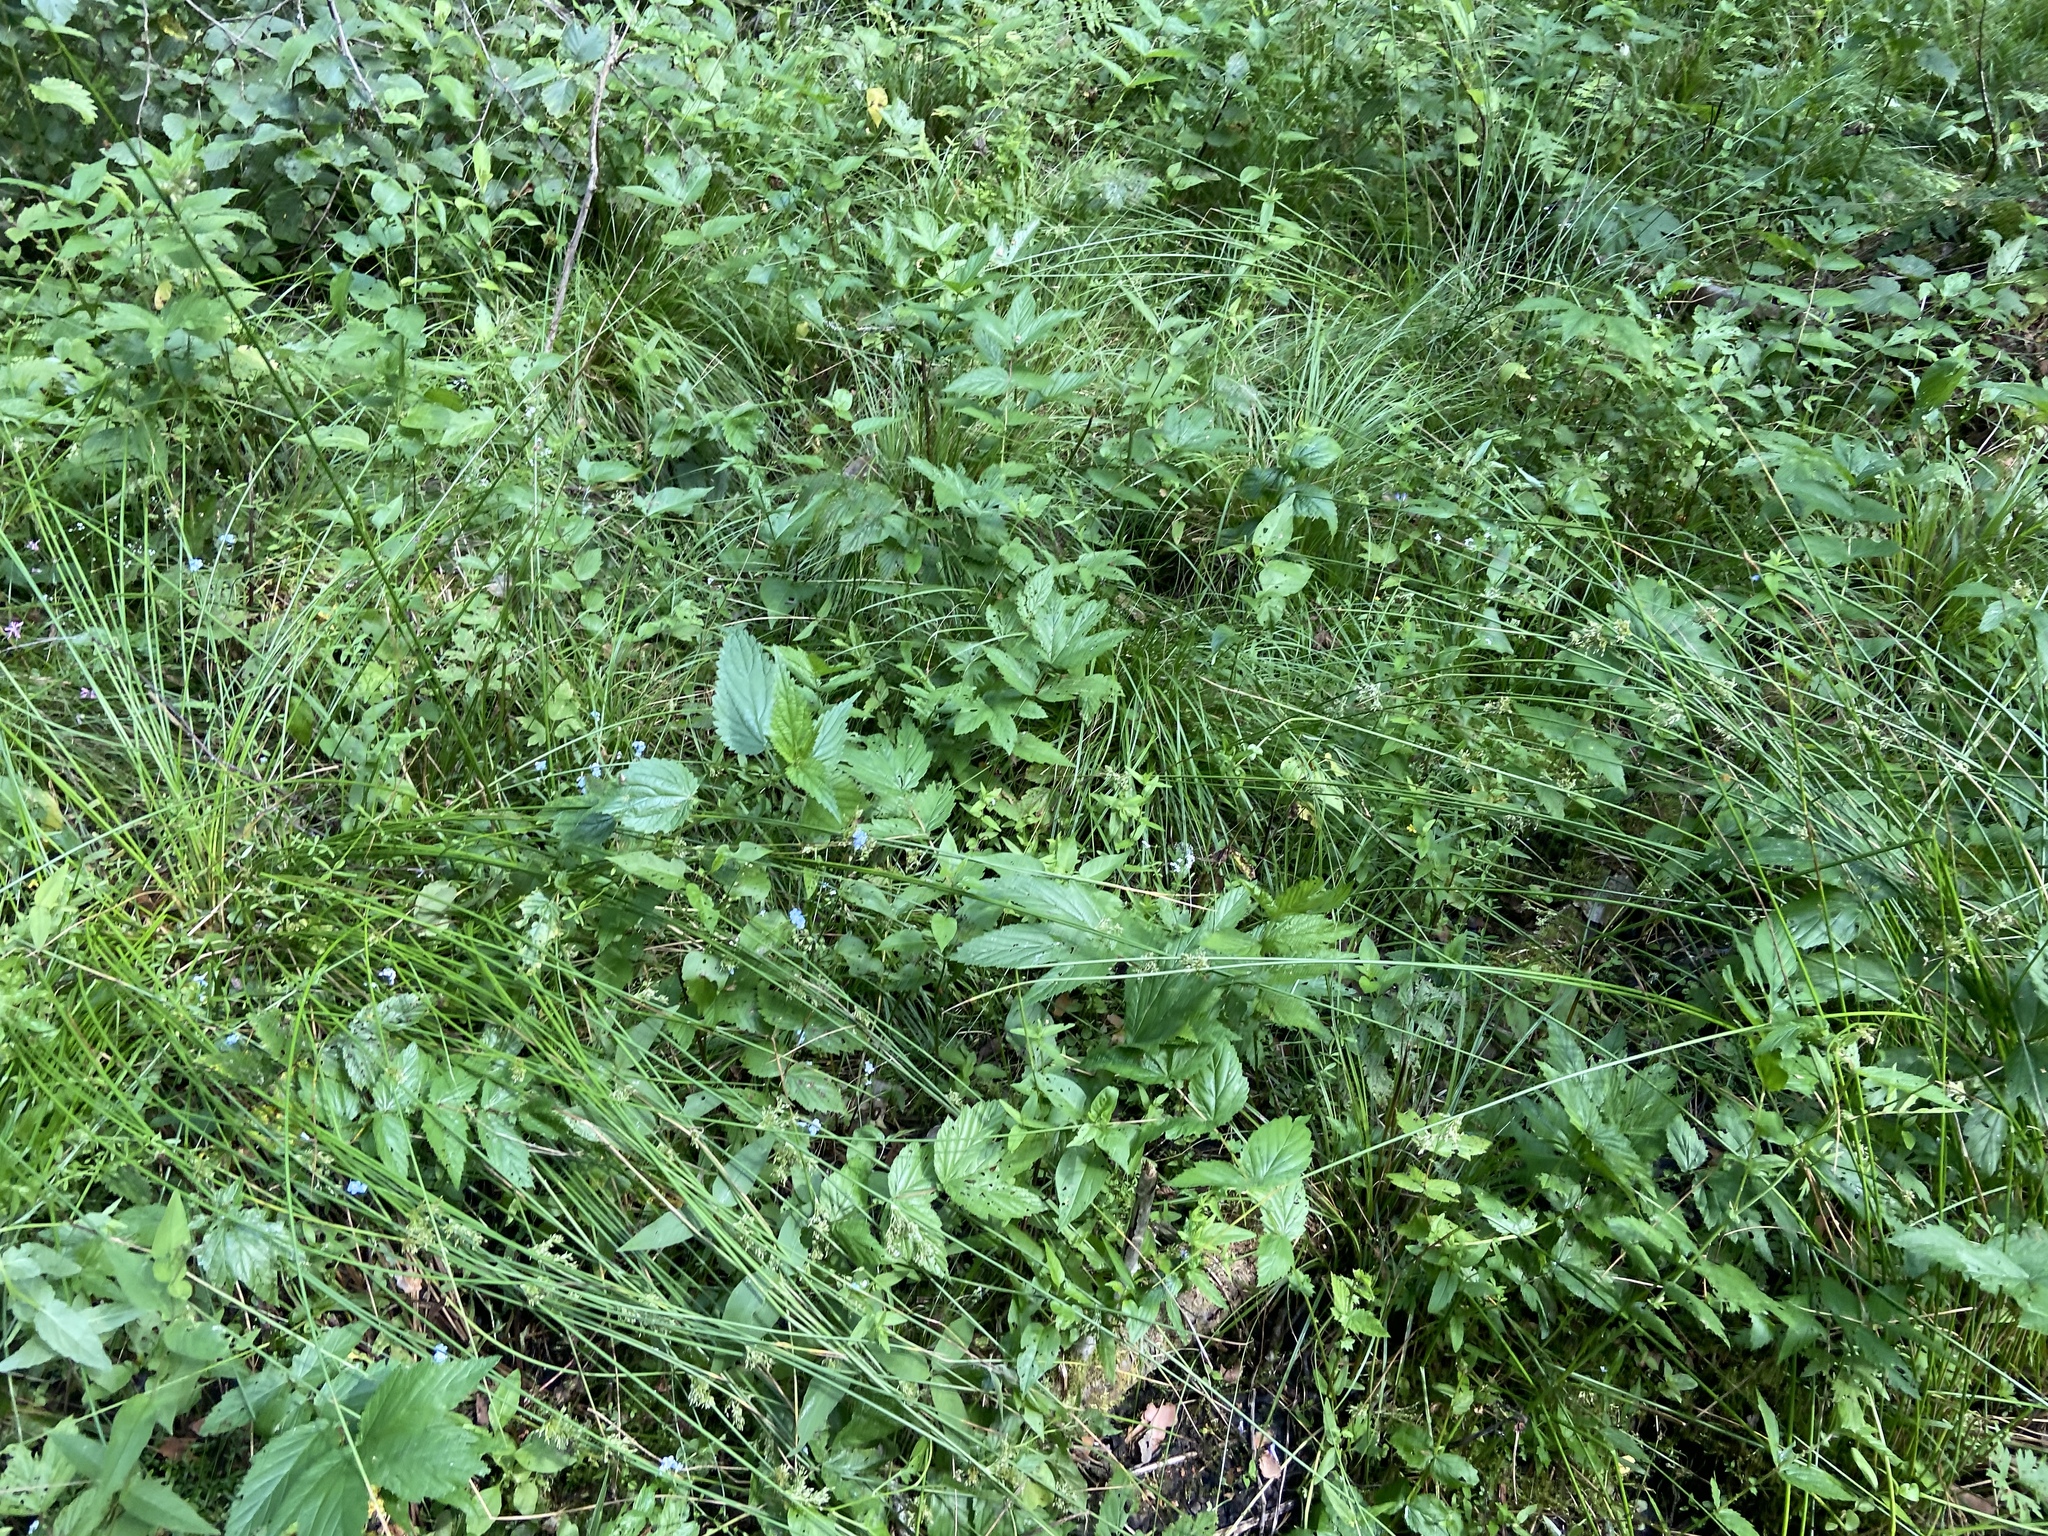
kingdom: Plantae
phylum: Tracheophyta
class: Magnoliopsida
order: Rosales
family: Rosaceae
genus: Filipendula
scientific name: Filipendula ulmaria
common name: Meadowsweet
